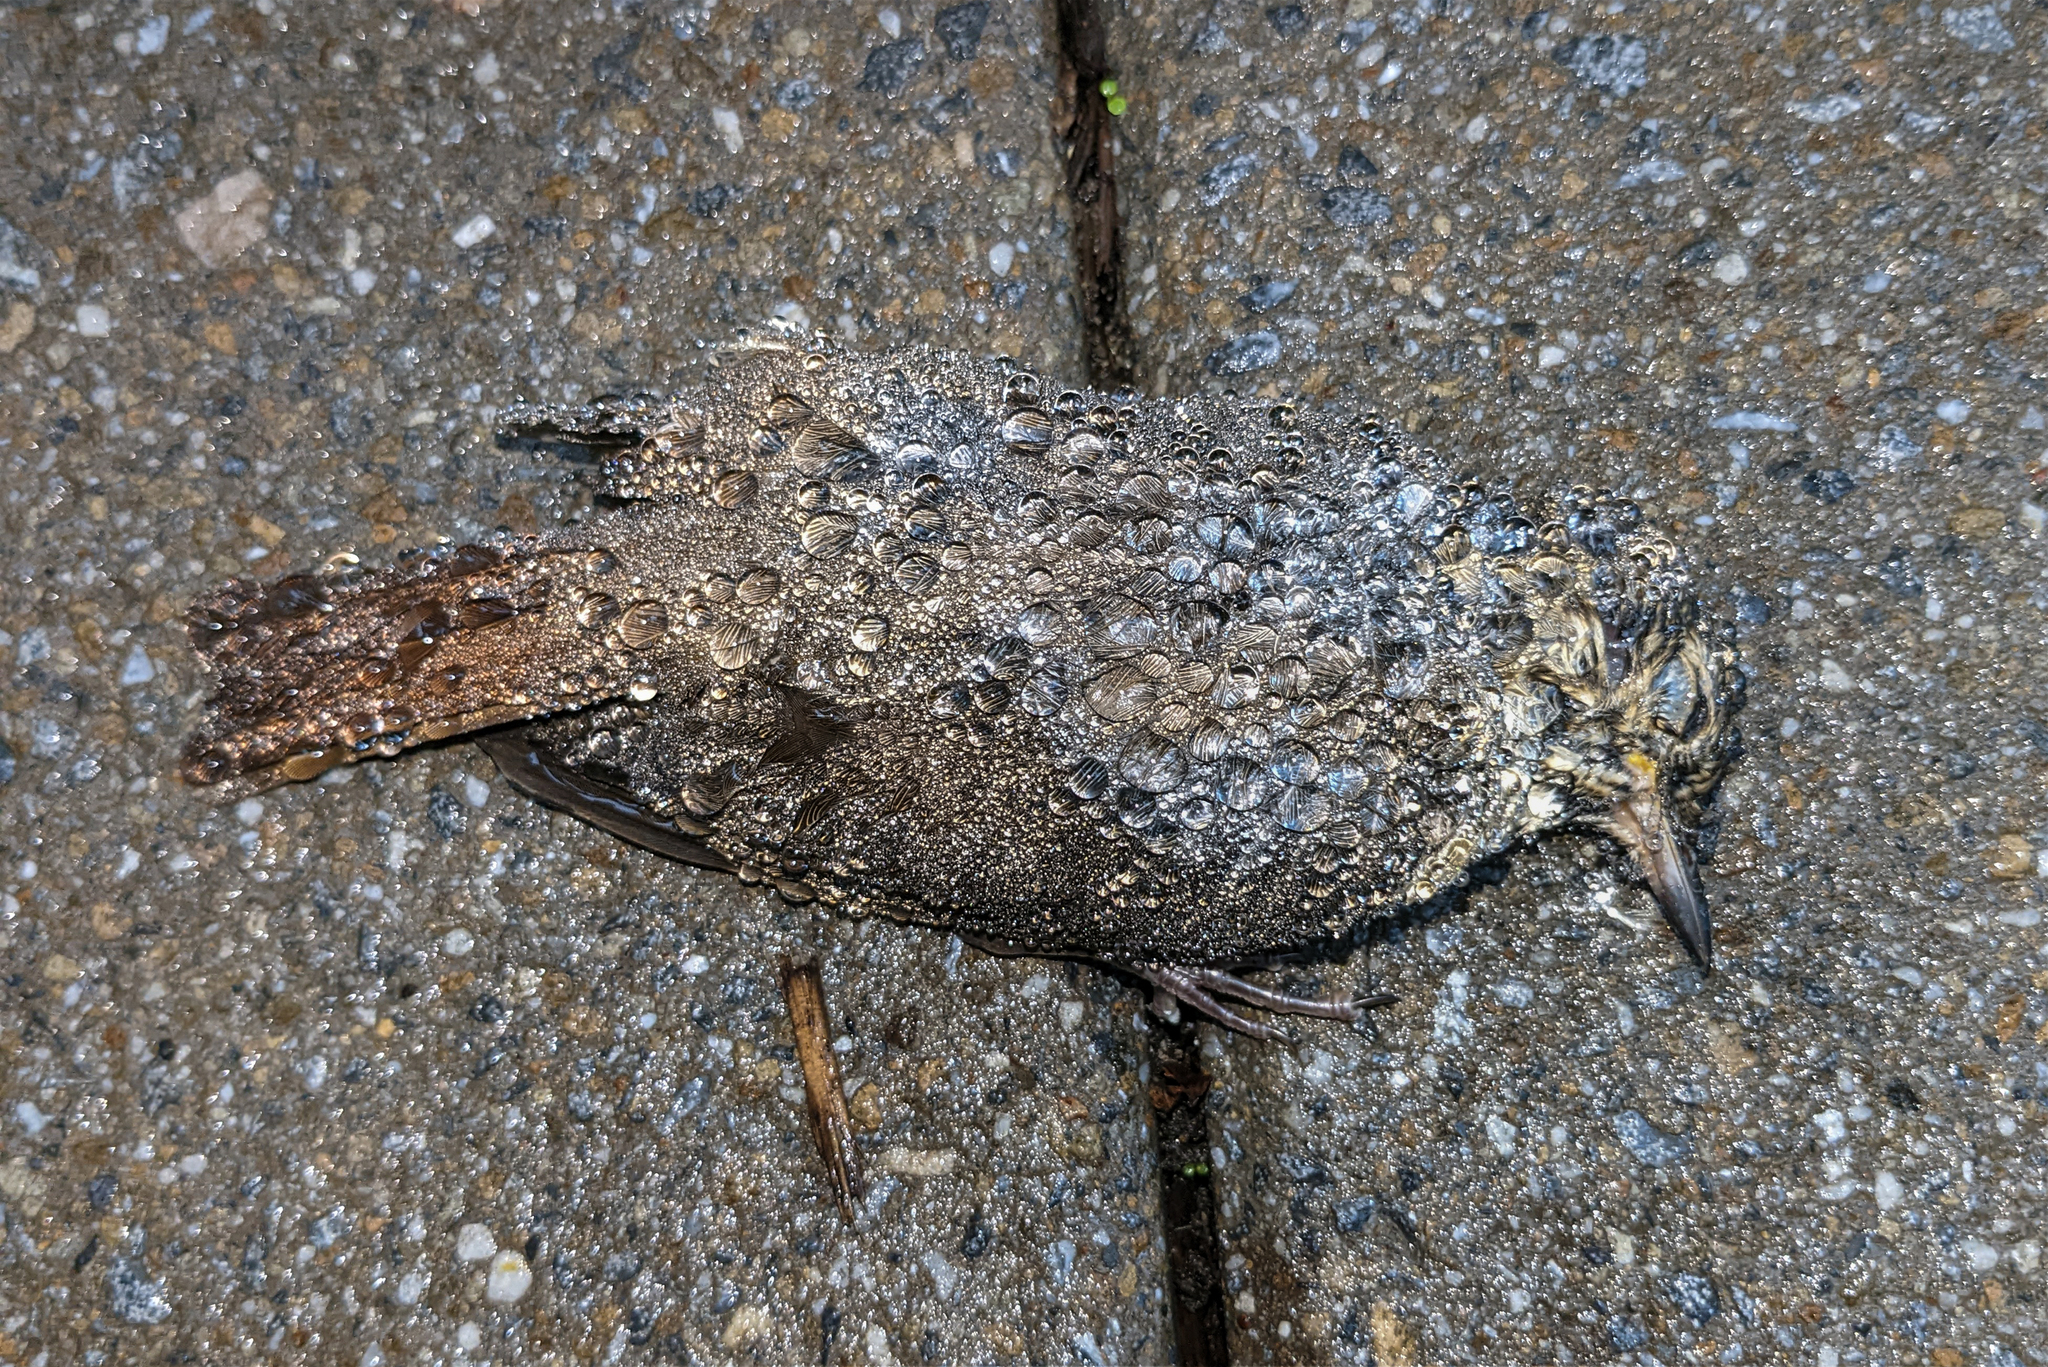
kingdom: Animalia
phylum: Chordata
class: Aves
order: Passeriformes
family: Turdidae
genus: Catharus
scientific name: Catharus guttatus
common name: Hermit thrush
